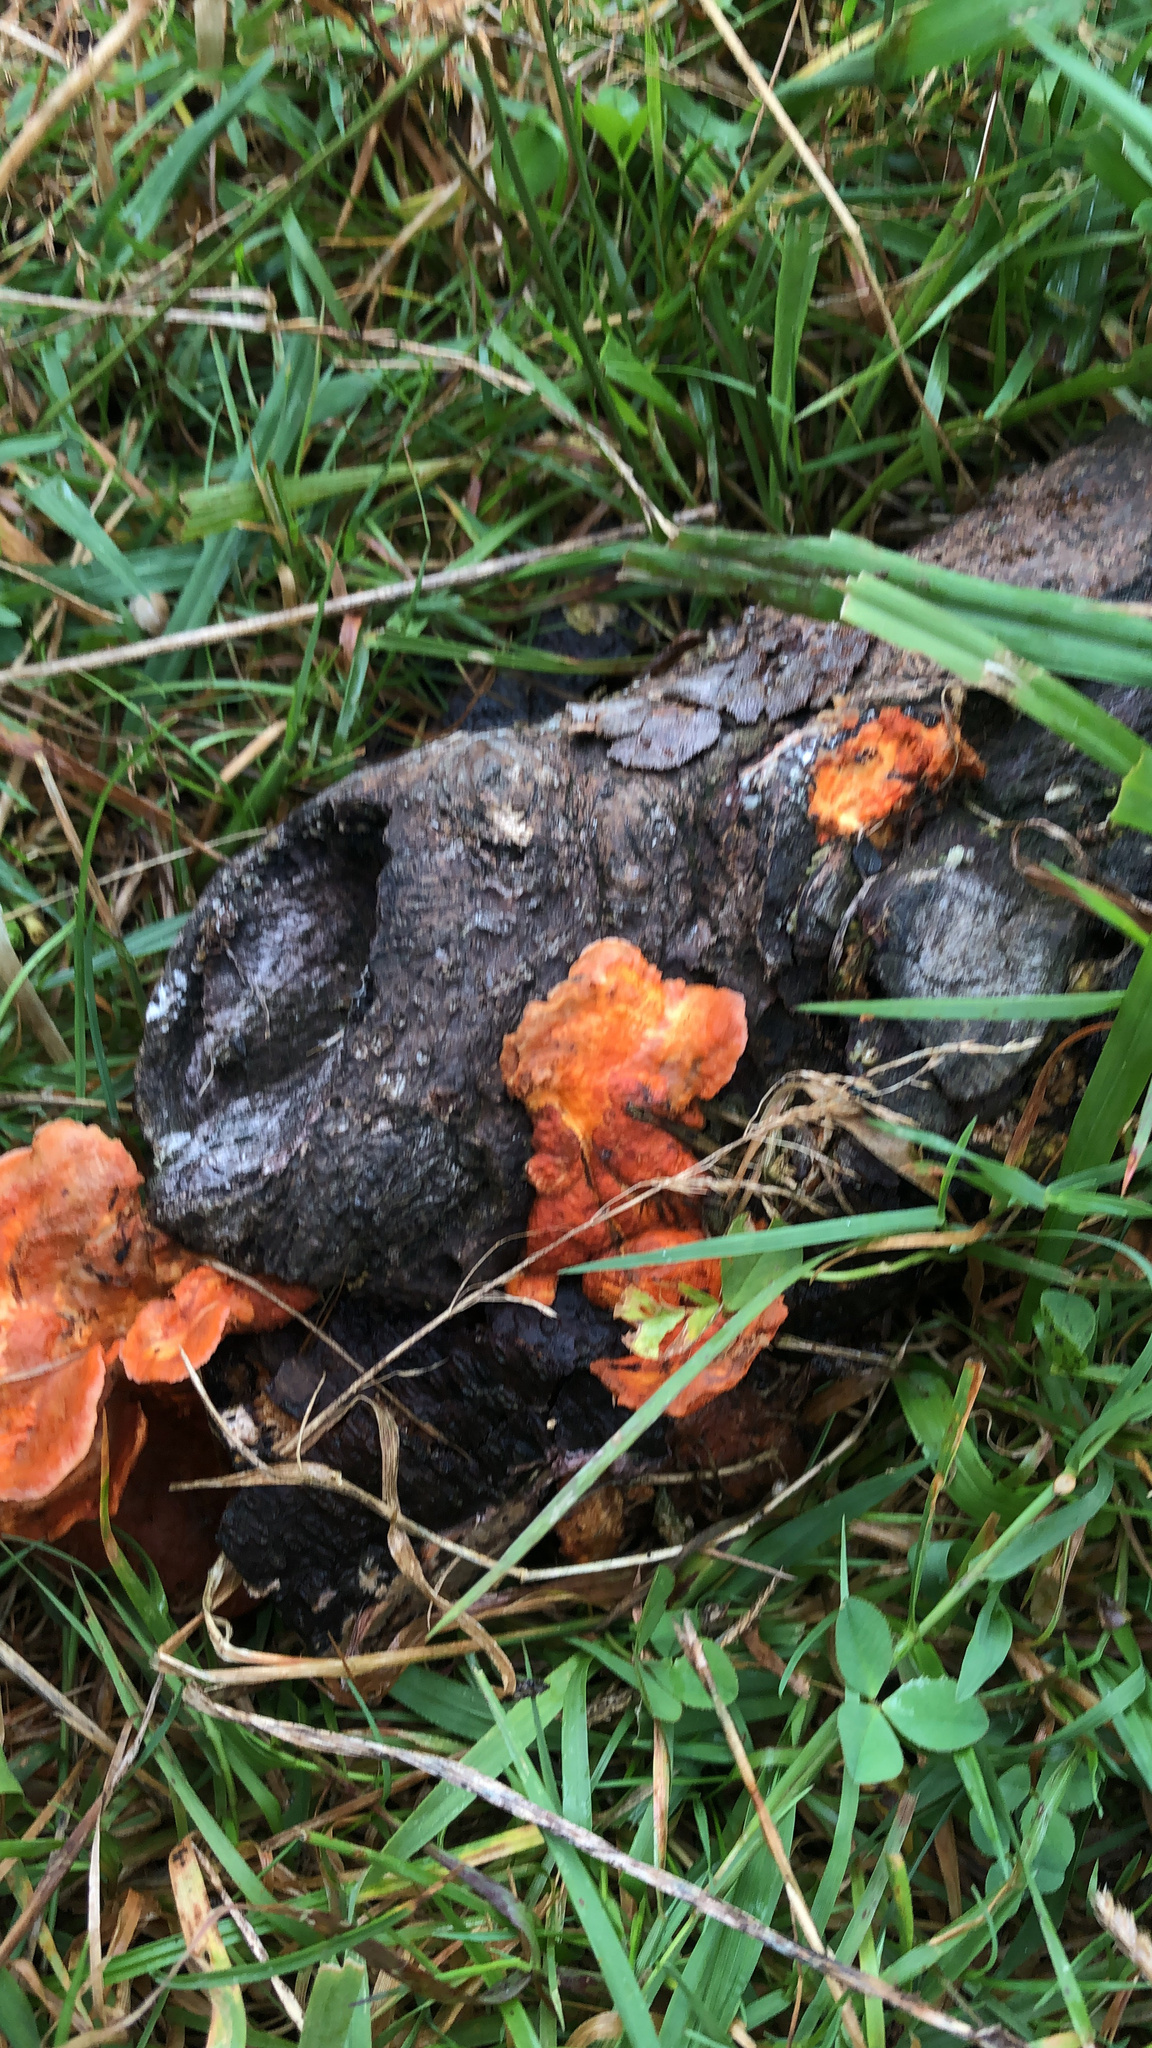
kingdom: Fungi
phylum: Basidiomycota
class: Agaricomycetes
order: Polyporales
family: Polyporaceae
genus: Trametes
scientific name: Trametes coccinea
